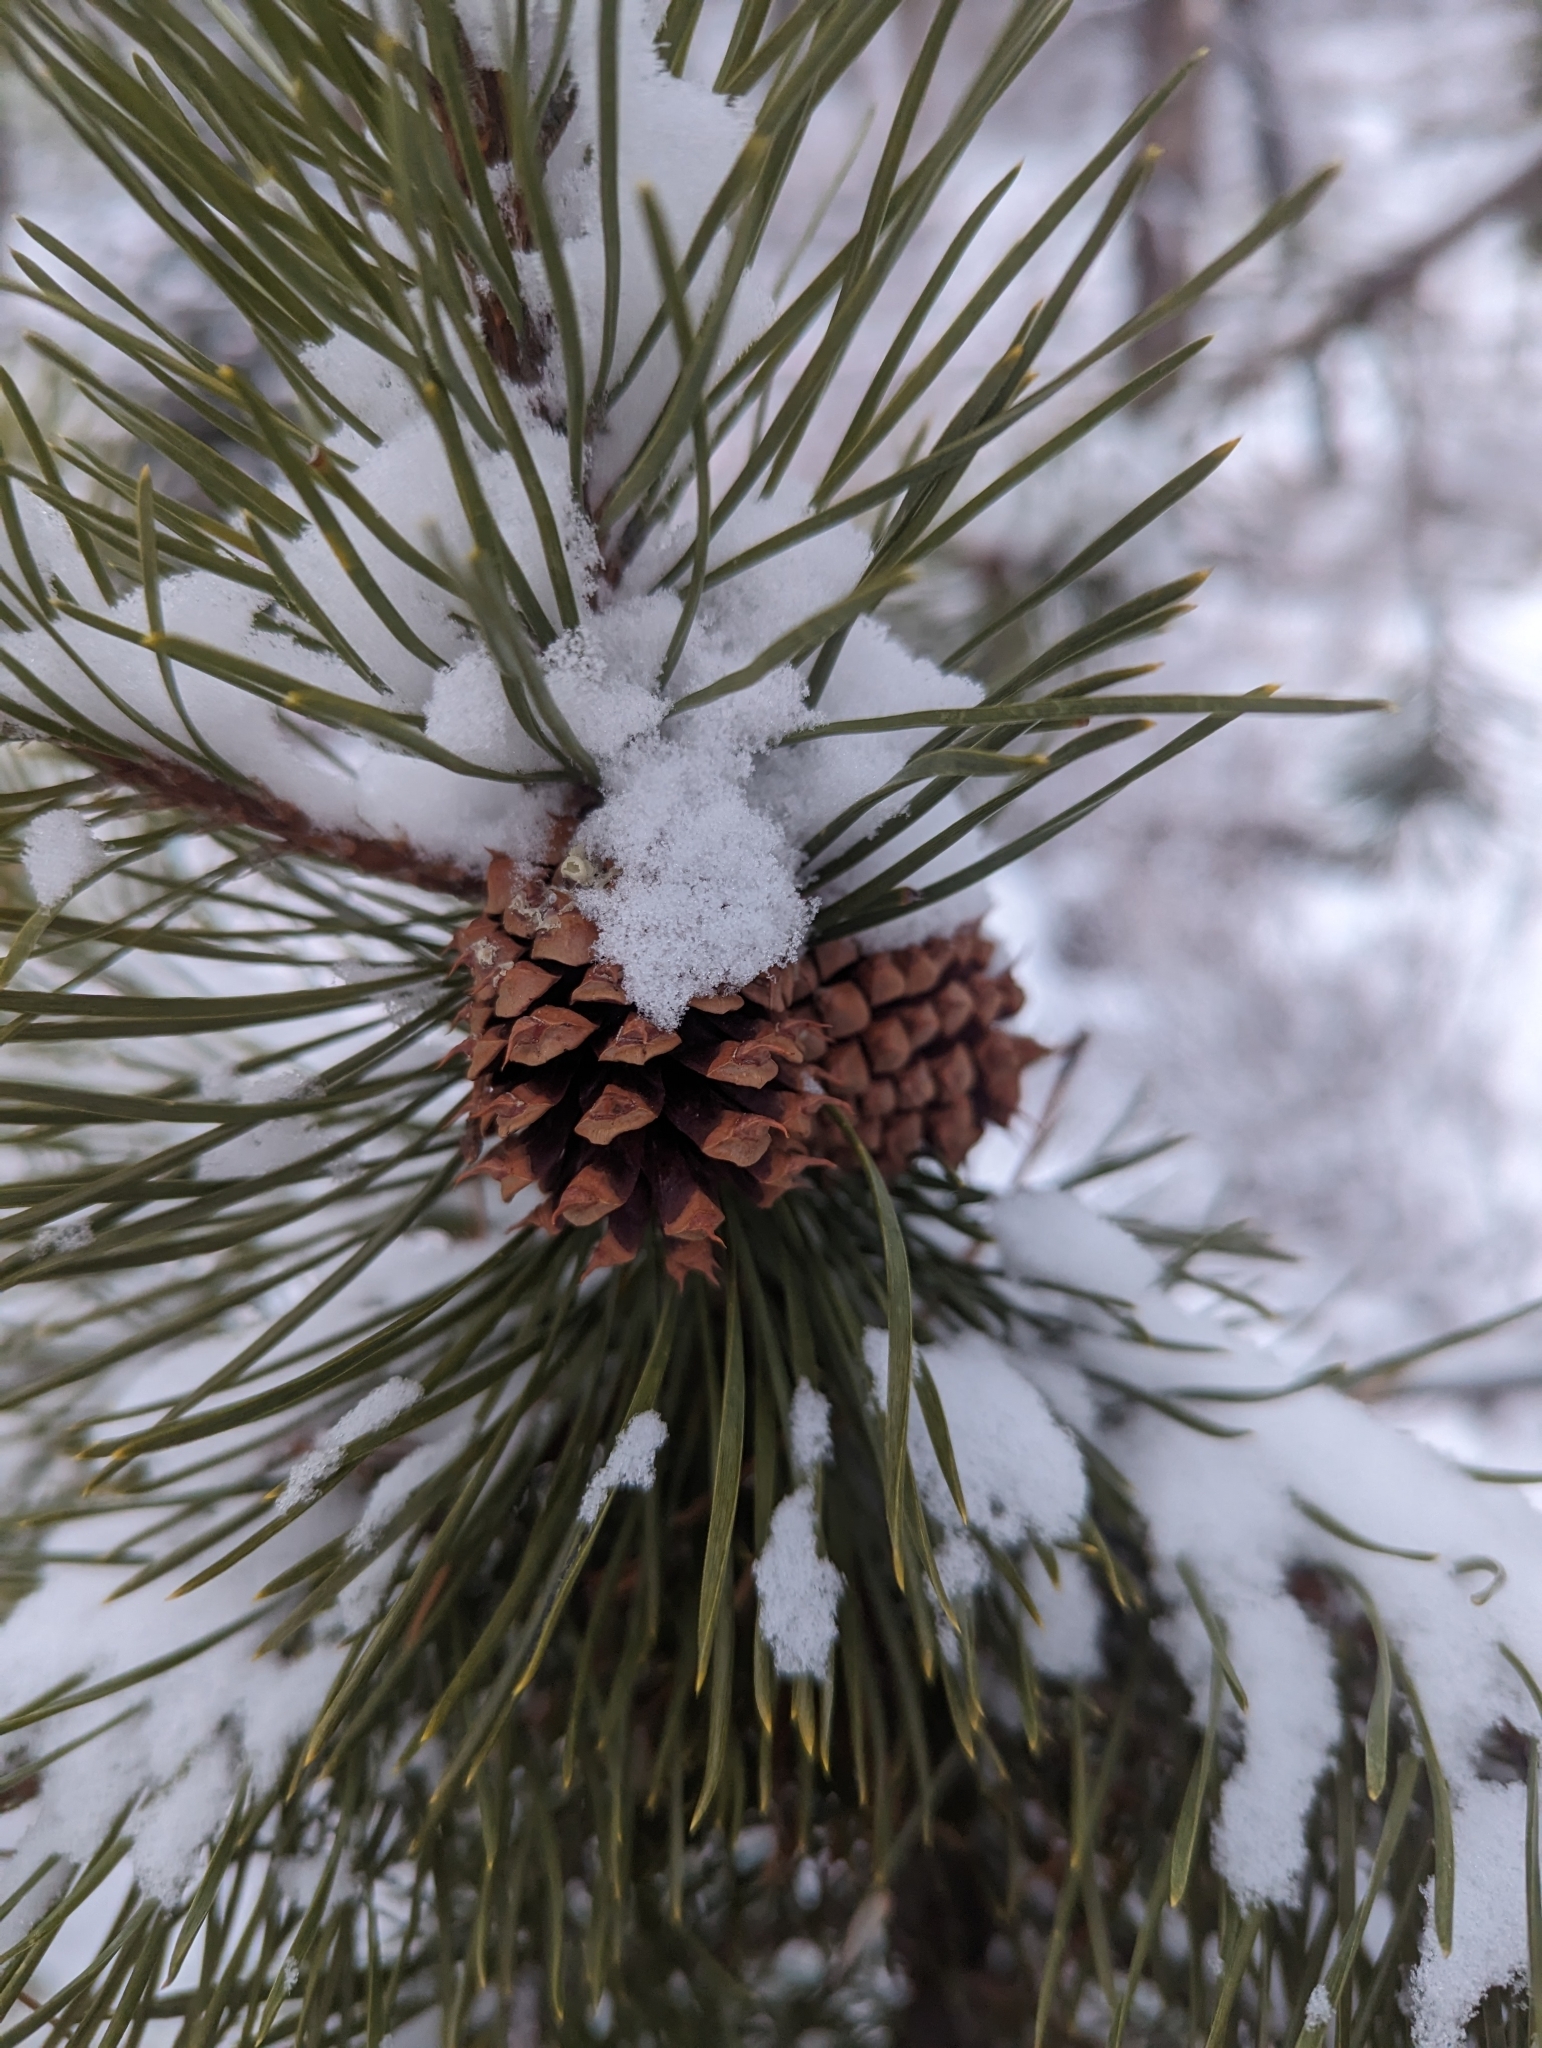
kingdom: Plantae
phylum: Tracheophyta
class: Pinopsida
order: Pinales
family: Pinaceae
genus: Pinus
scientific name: Pinus contorta
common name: Lodgepole pine
